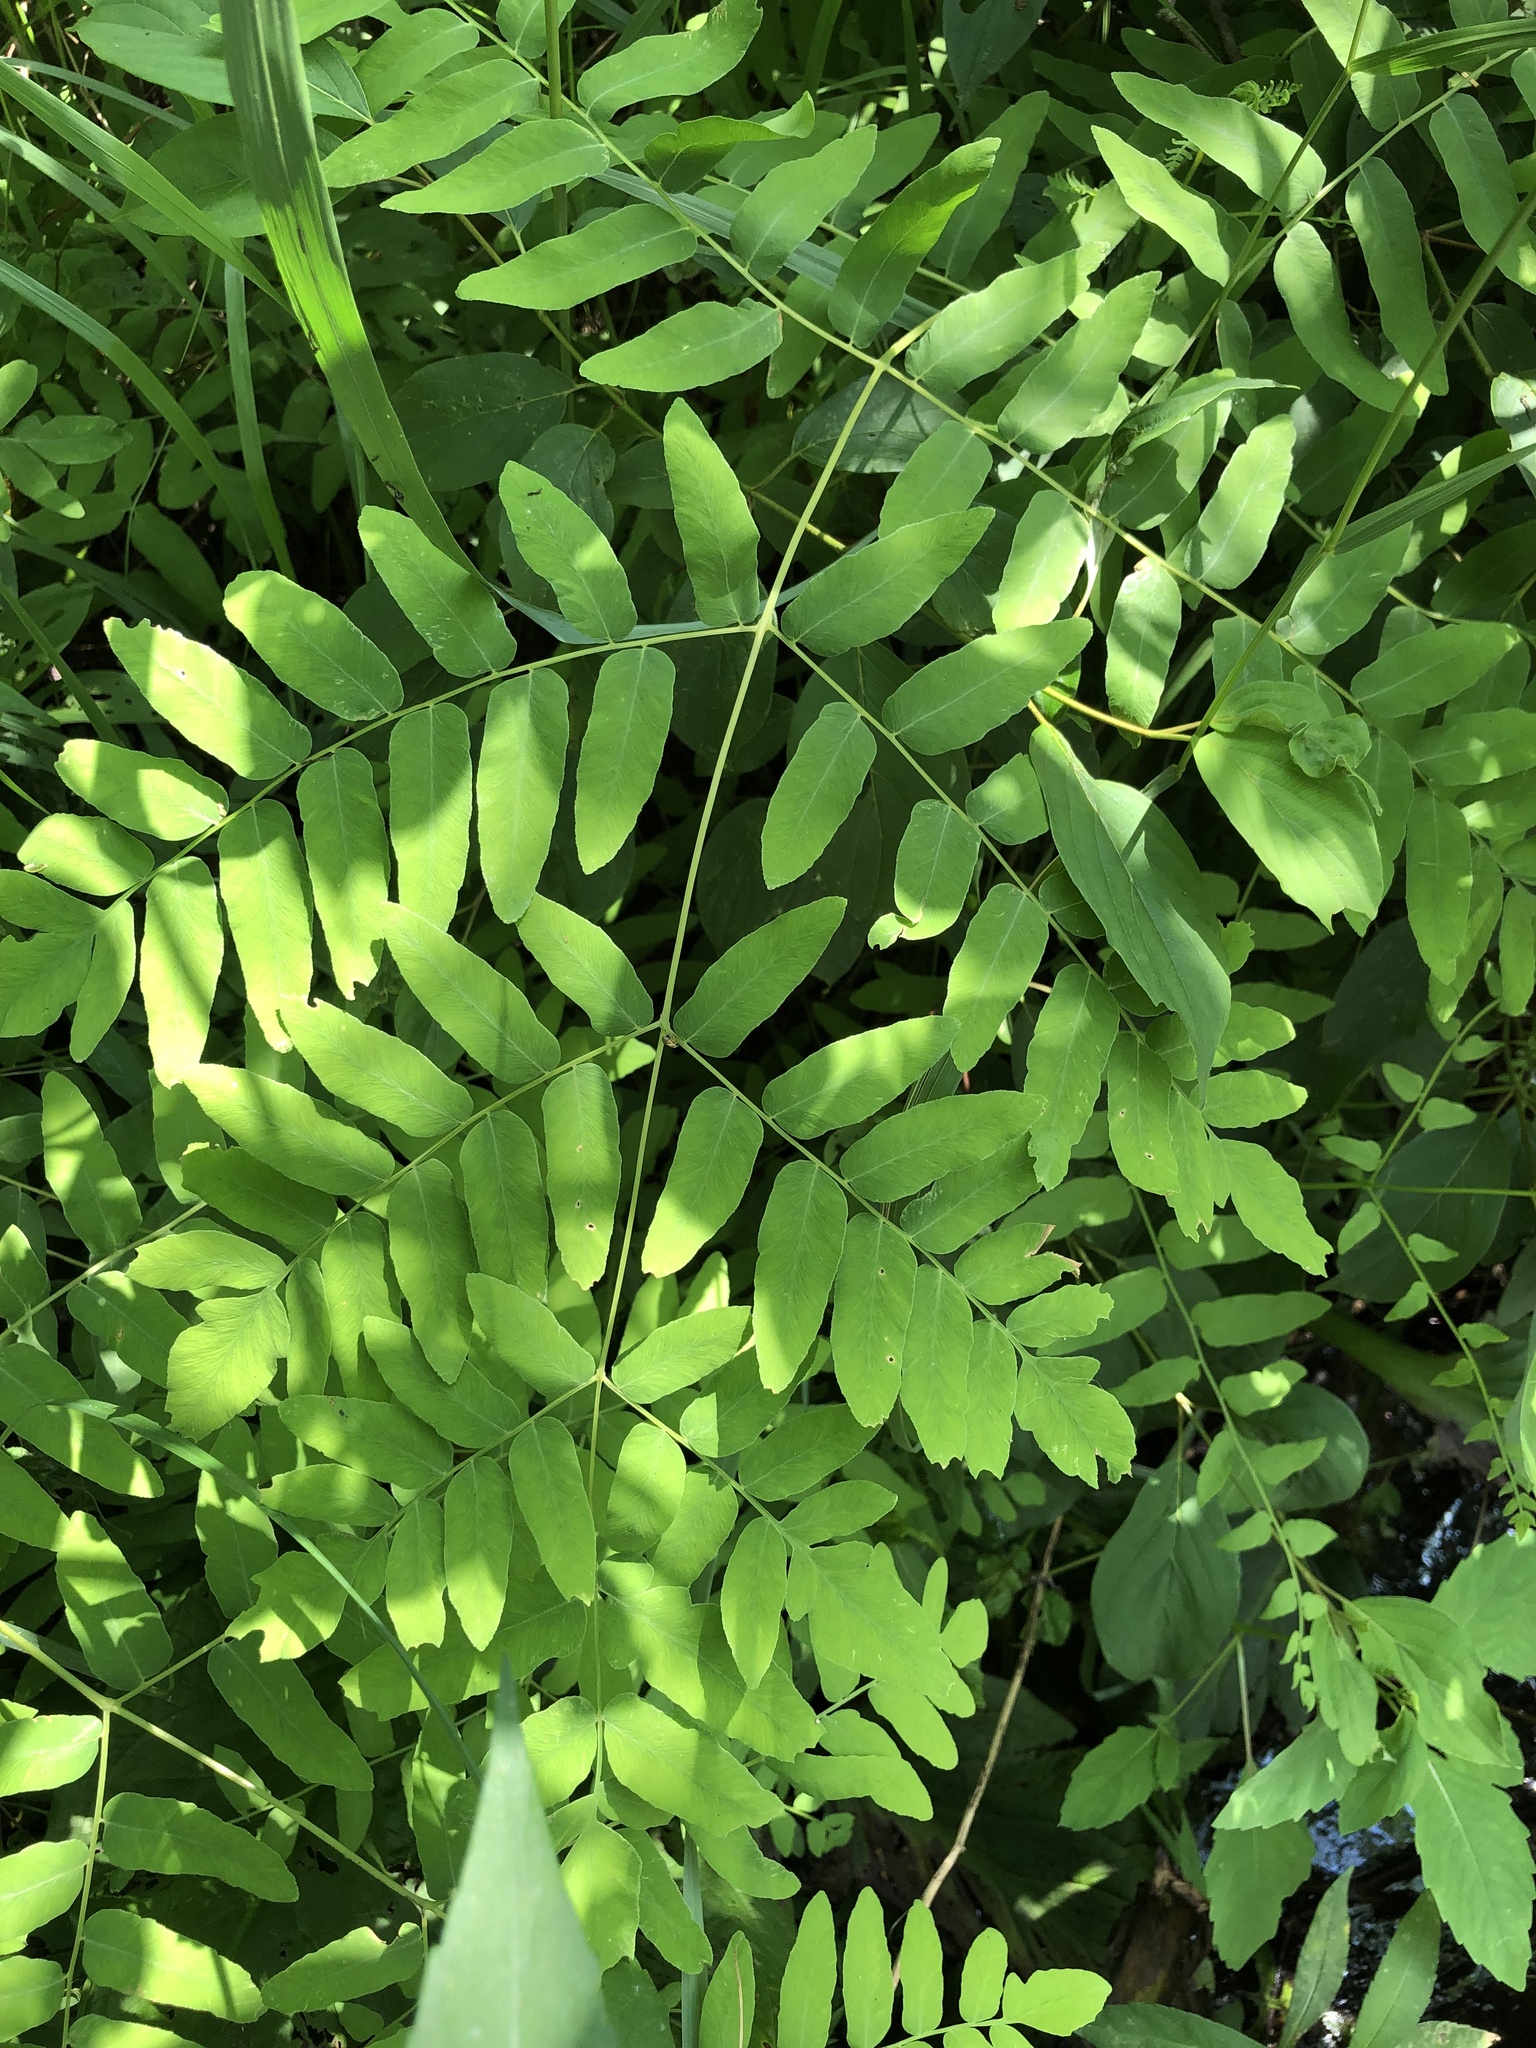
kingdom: Plantae
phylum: Tracheophyta
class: Polypodiopsida
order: Osmundales
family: Osmundaceae
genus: Osmunda
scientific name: Osmunda spectabilis
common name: American royal fern
